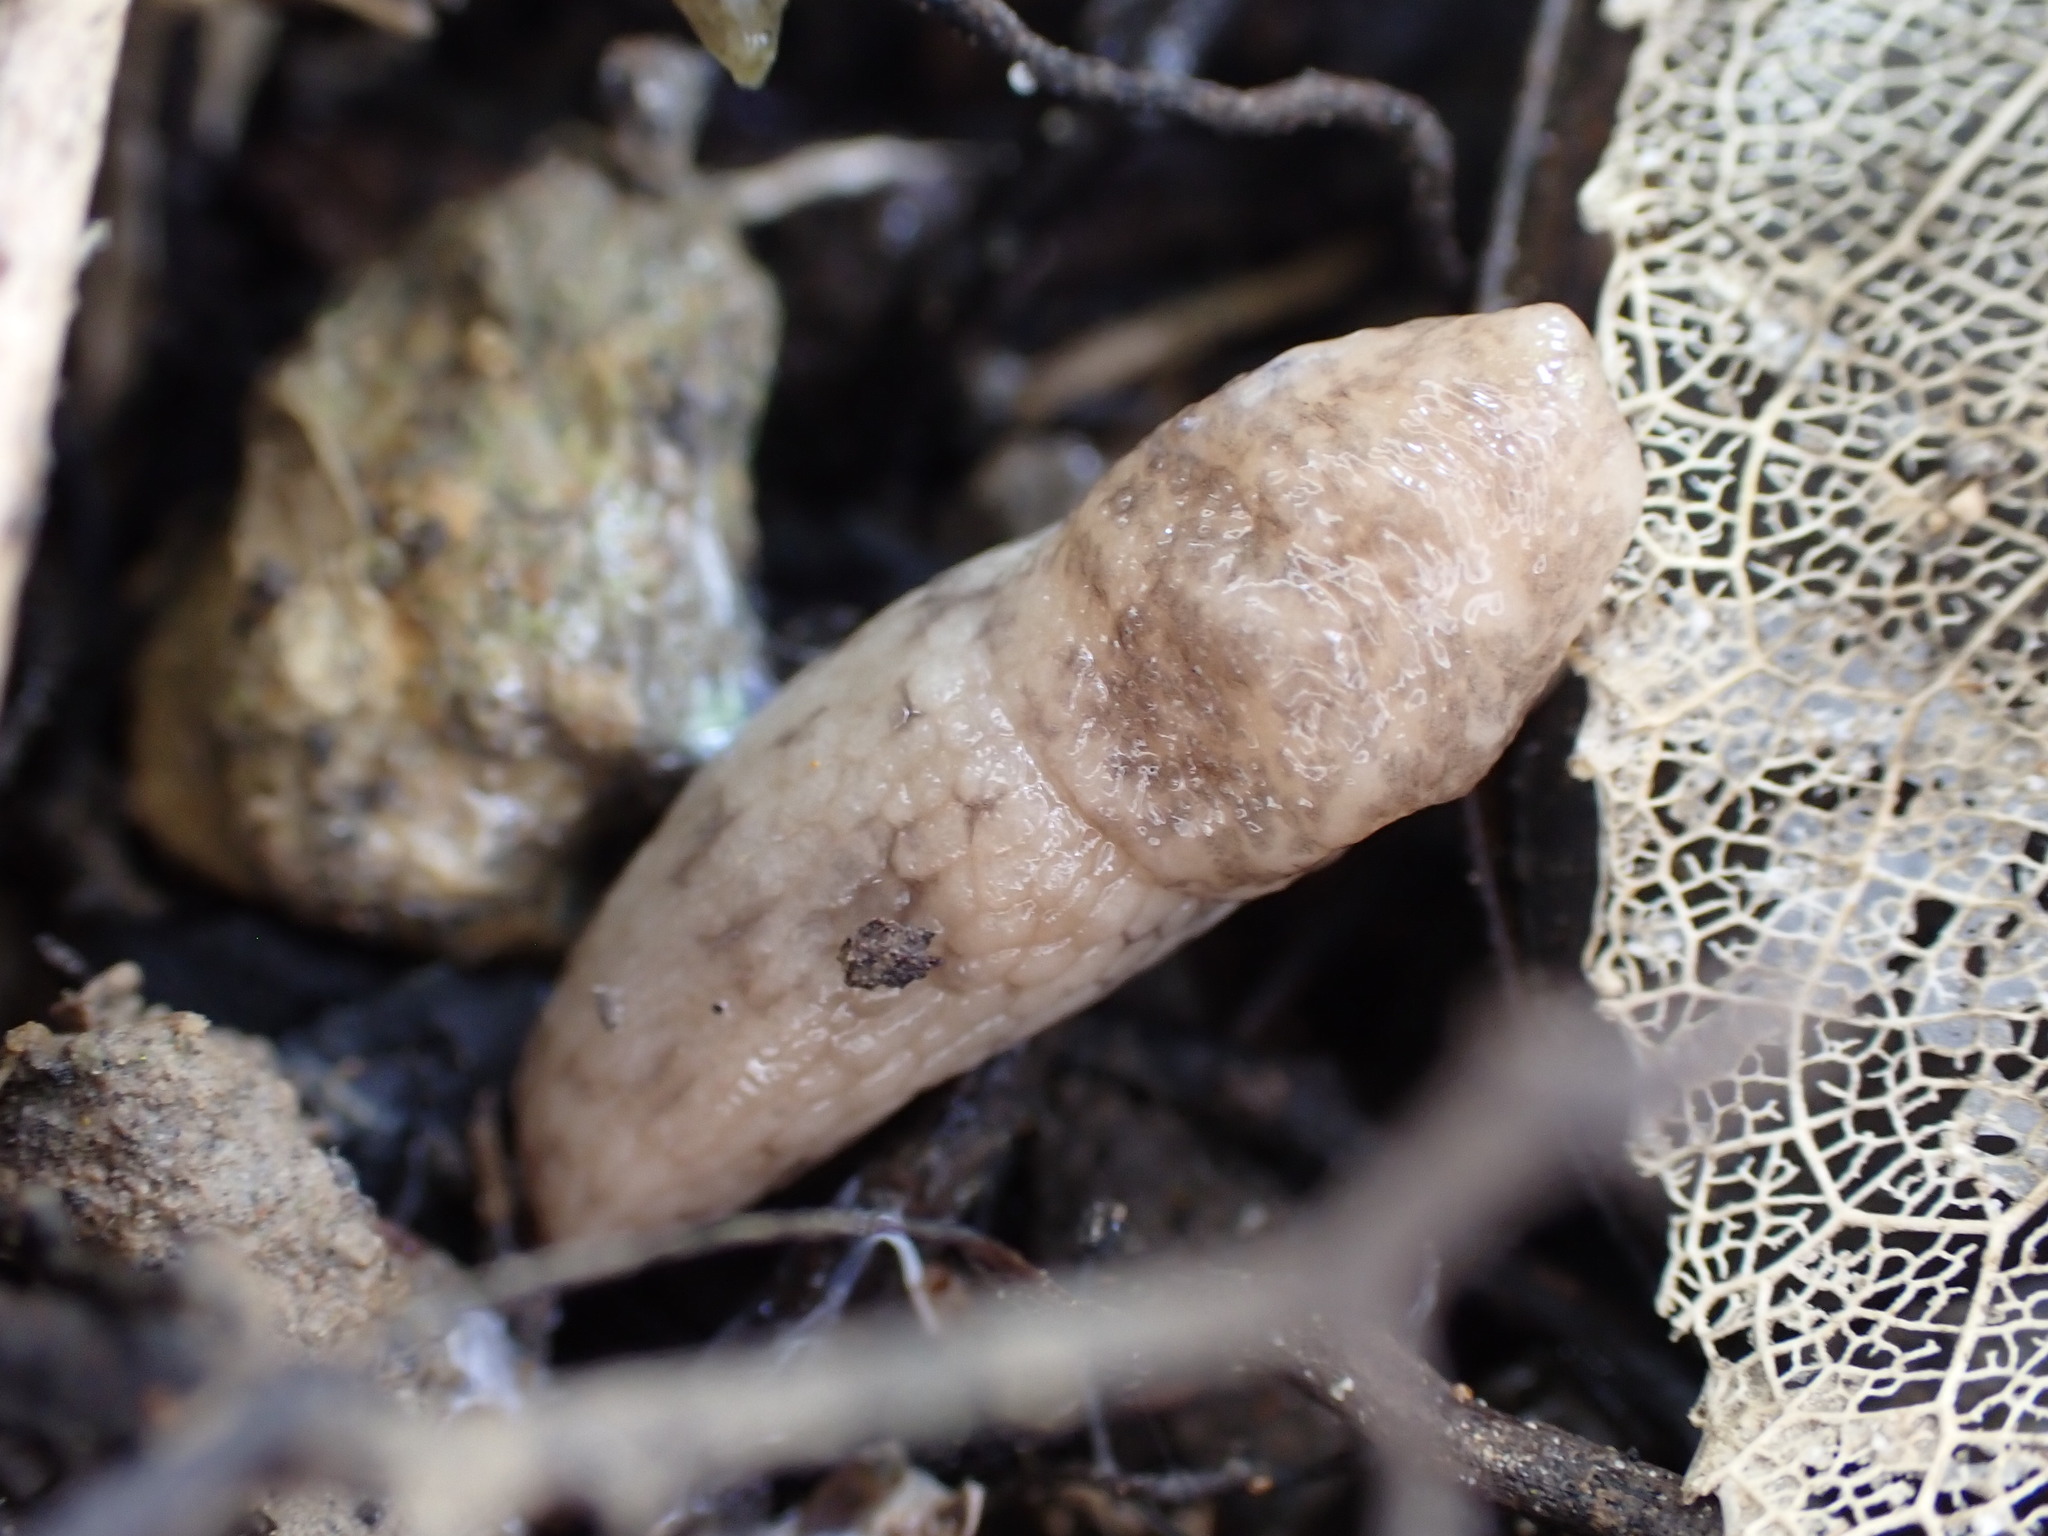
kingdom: Animalia
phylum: Mollusca
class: Gastropoda
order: Stylommatophora
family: Agriolimacidae
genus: Deroceras
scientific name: Deroceras reticulatum
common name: Gray field slug
